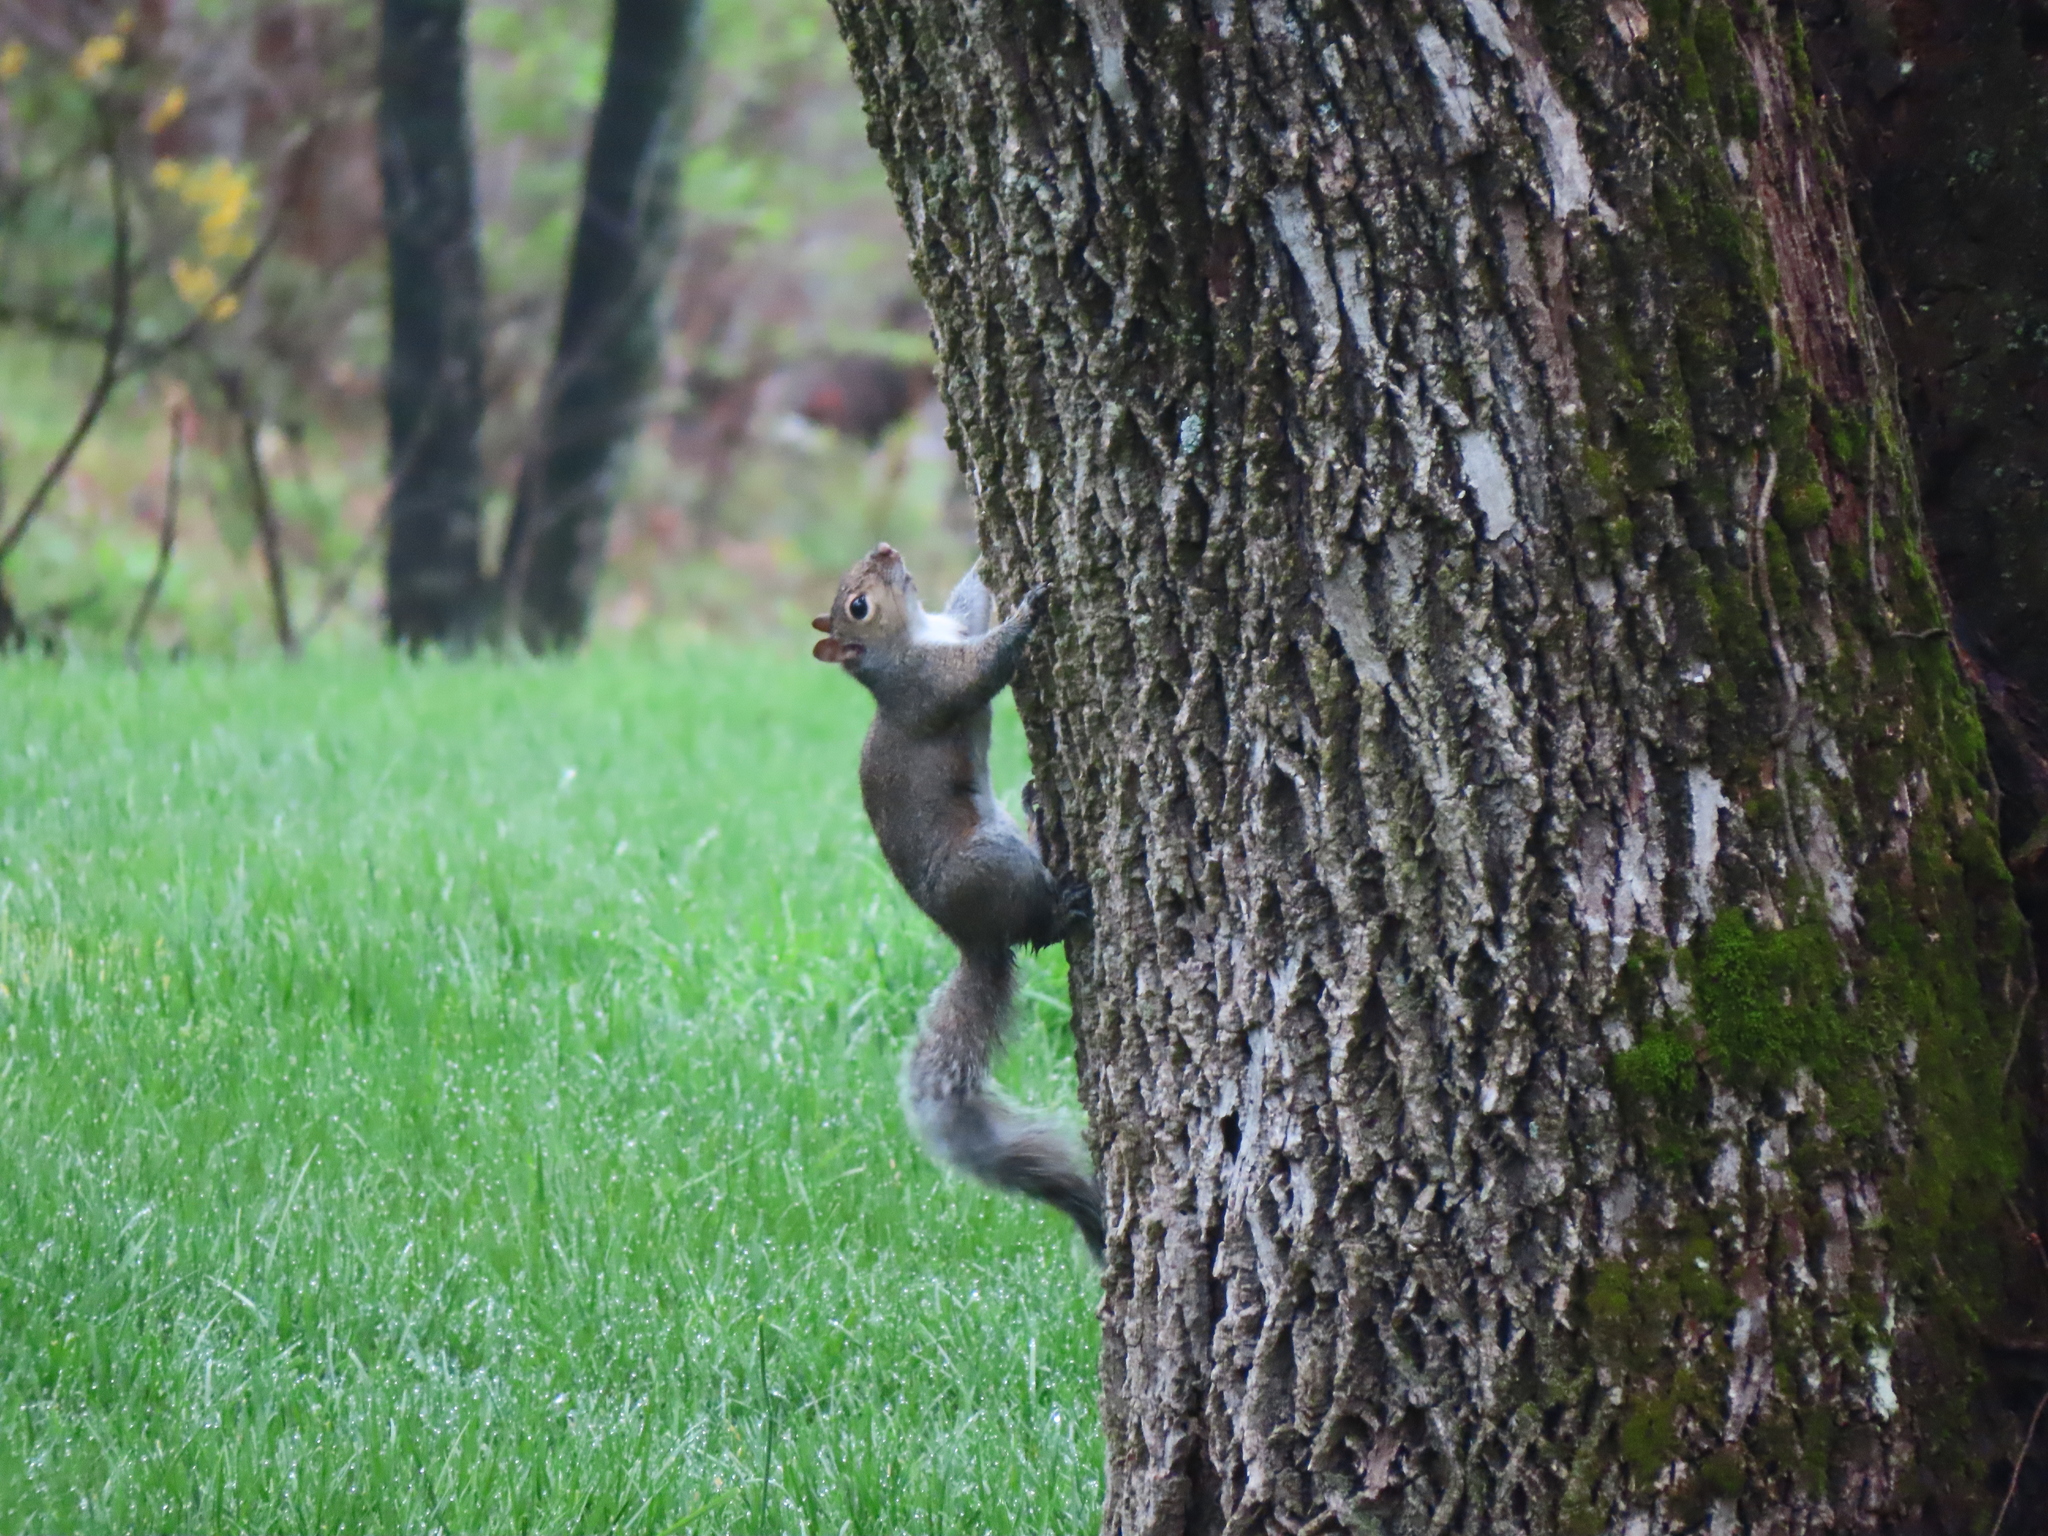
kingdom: Animalia
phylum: Chordata
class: Mammalia
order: Rodentia
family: Sciuridae
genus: Sciurus
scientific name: Sciurus carolinensis
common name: Eastern gray squirrel
